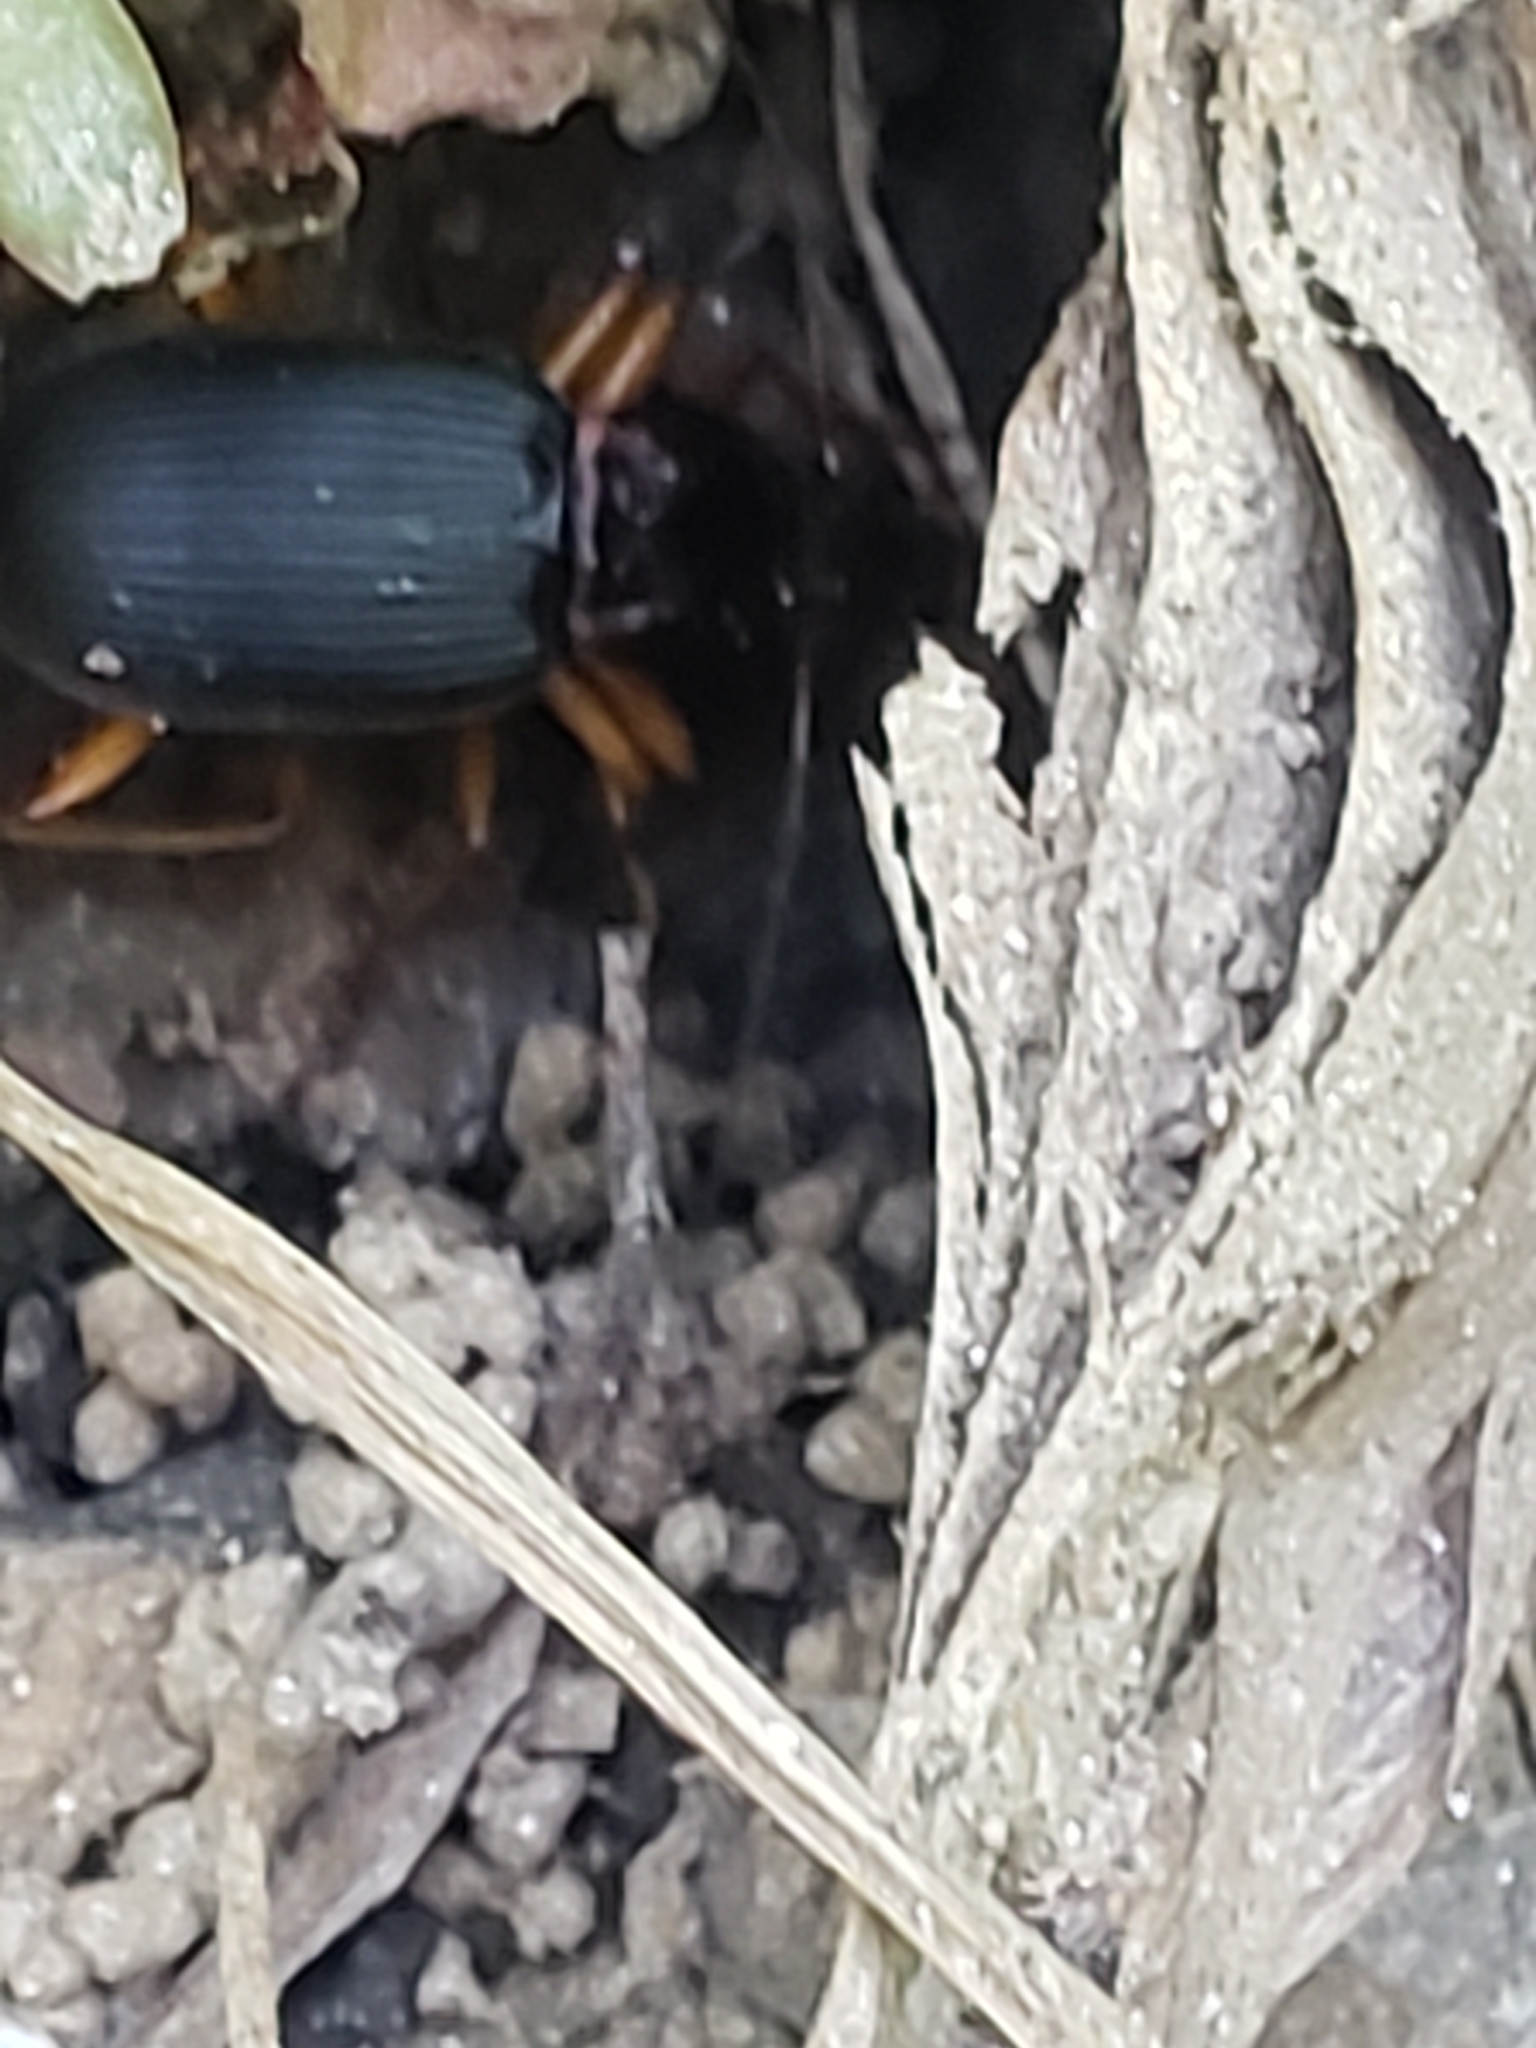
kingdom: Animalia
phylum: Arthropoda
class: Insecta
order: Coleoptera
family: Carabidae
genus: Chlaenius
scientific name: Chlaenius aestivus
